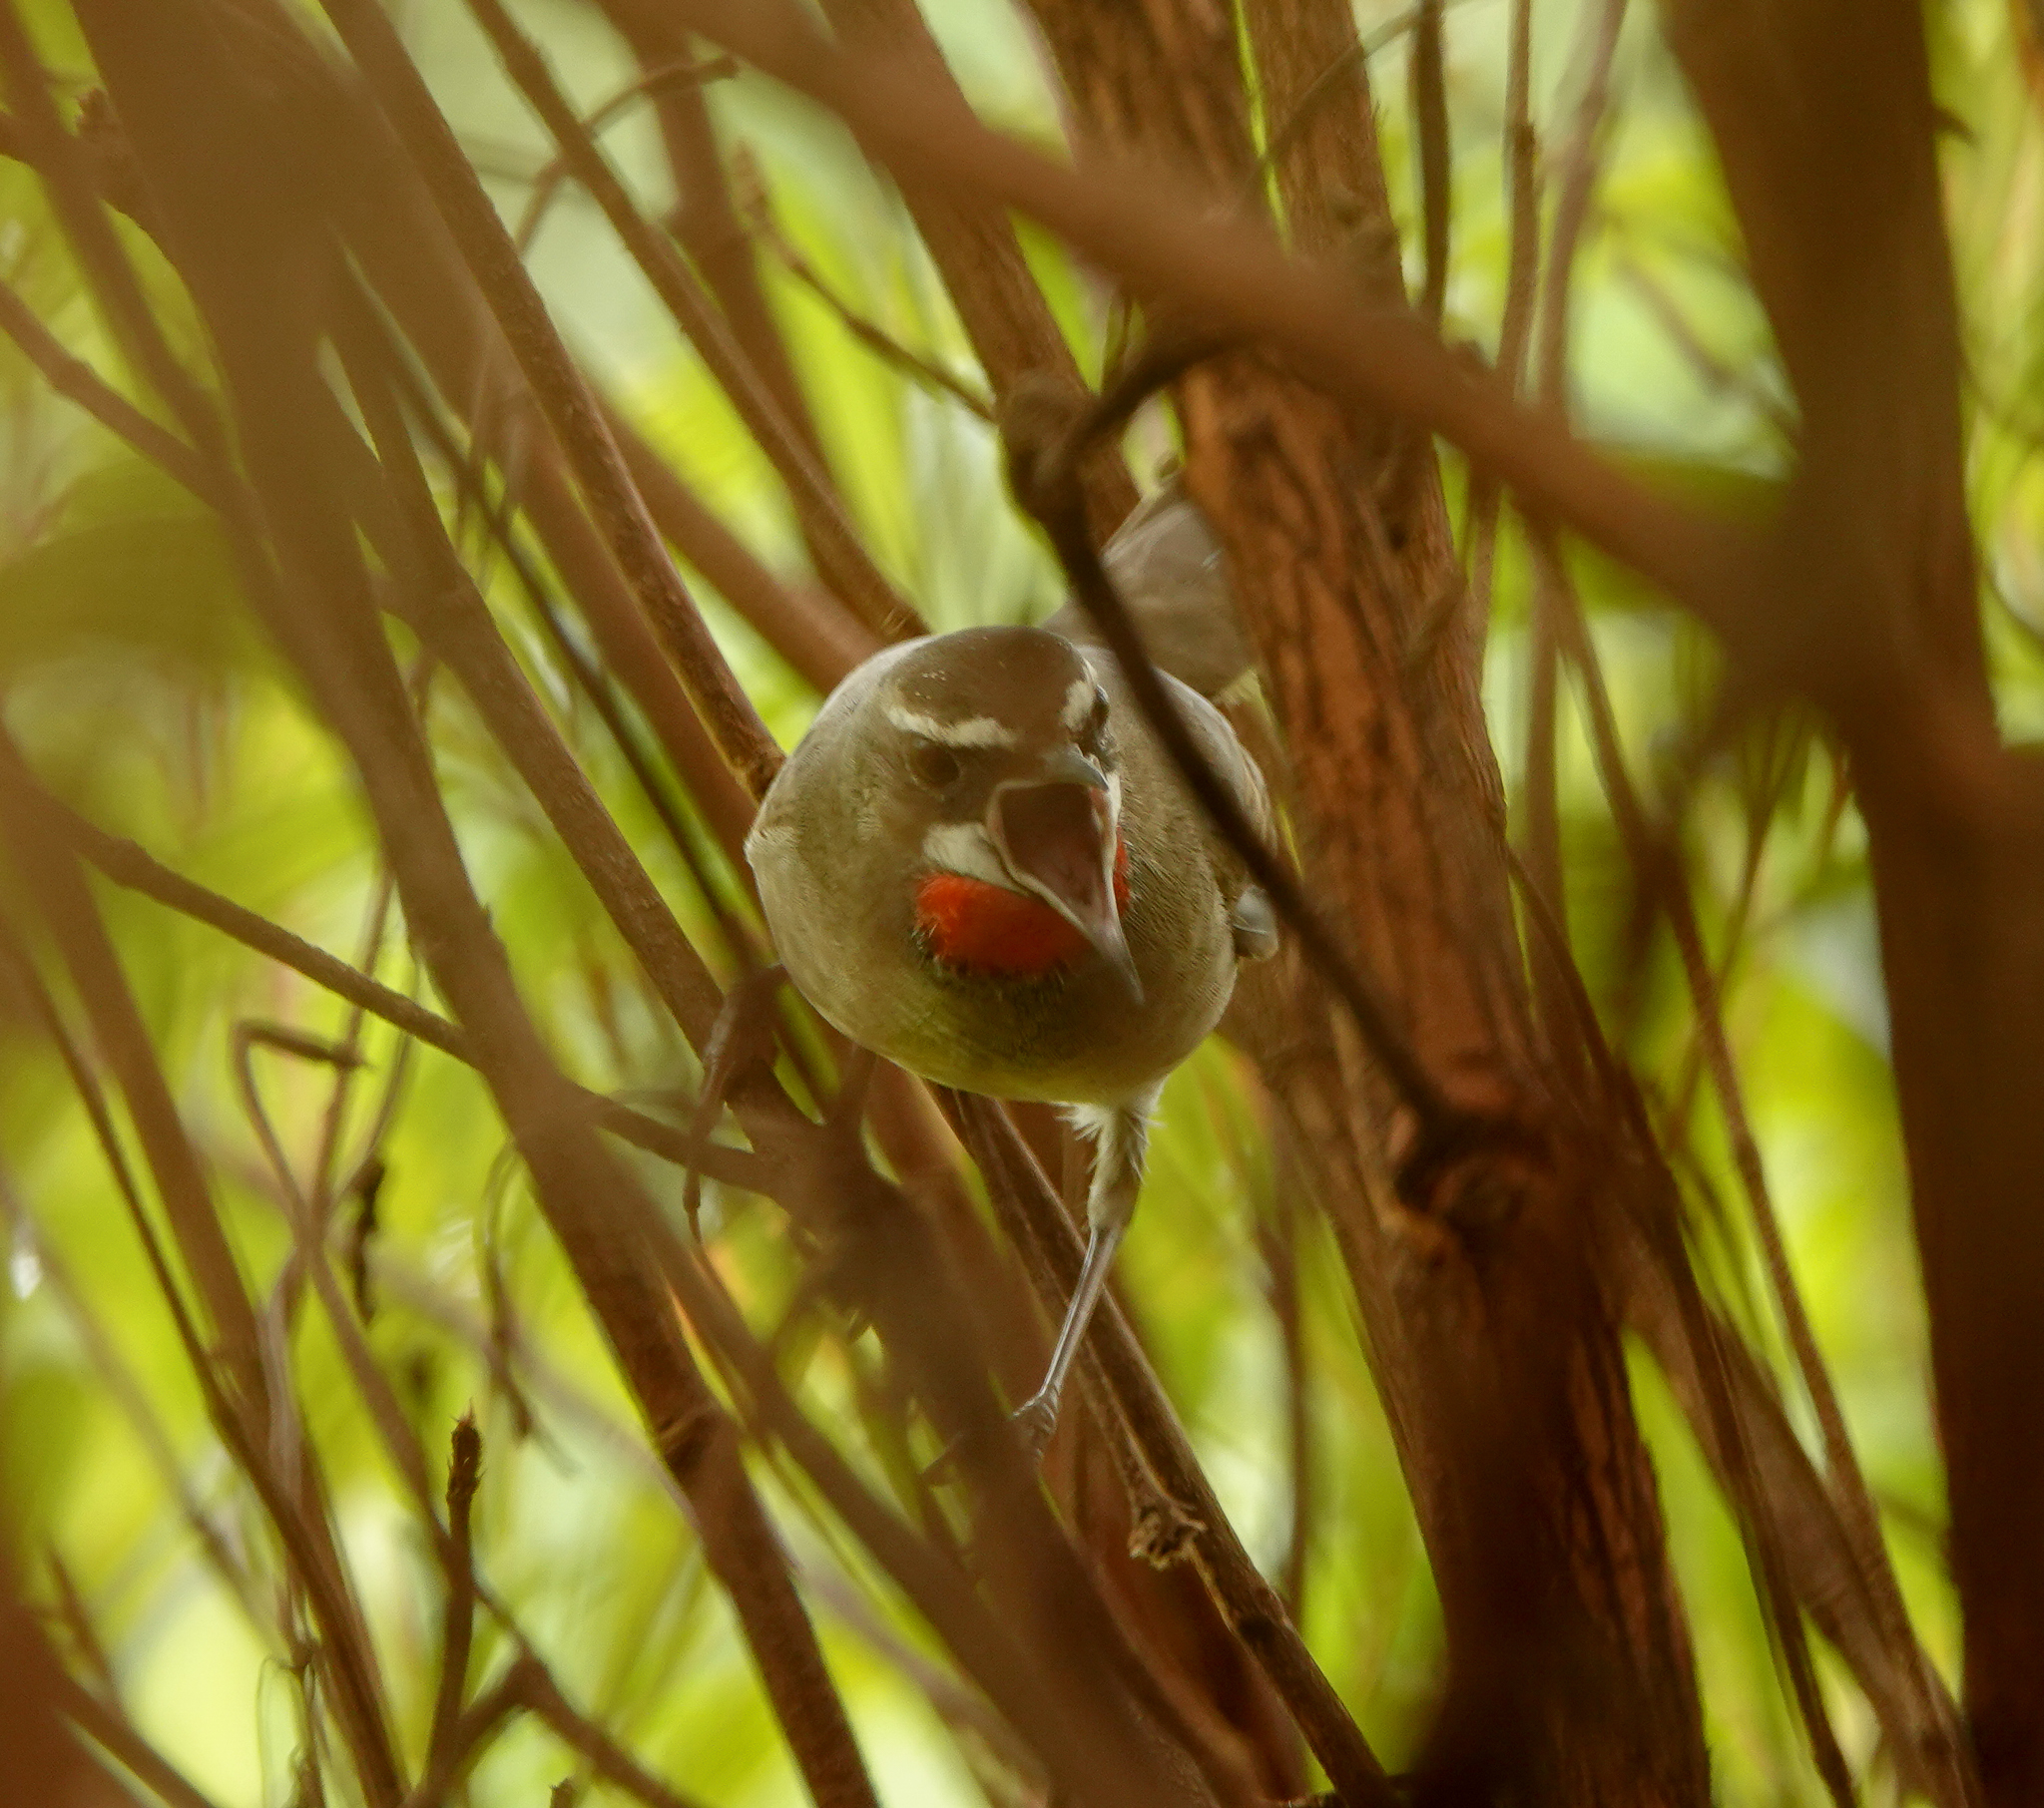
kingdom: Animalia
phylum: Chordata
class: Aves
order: Passeriformes
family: Muscicapidae
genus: Luscinia
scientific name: Luscinia calliope
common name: Siberian rubythroat
